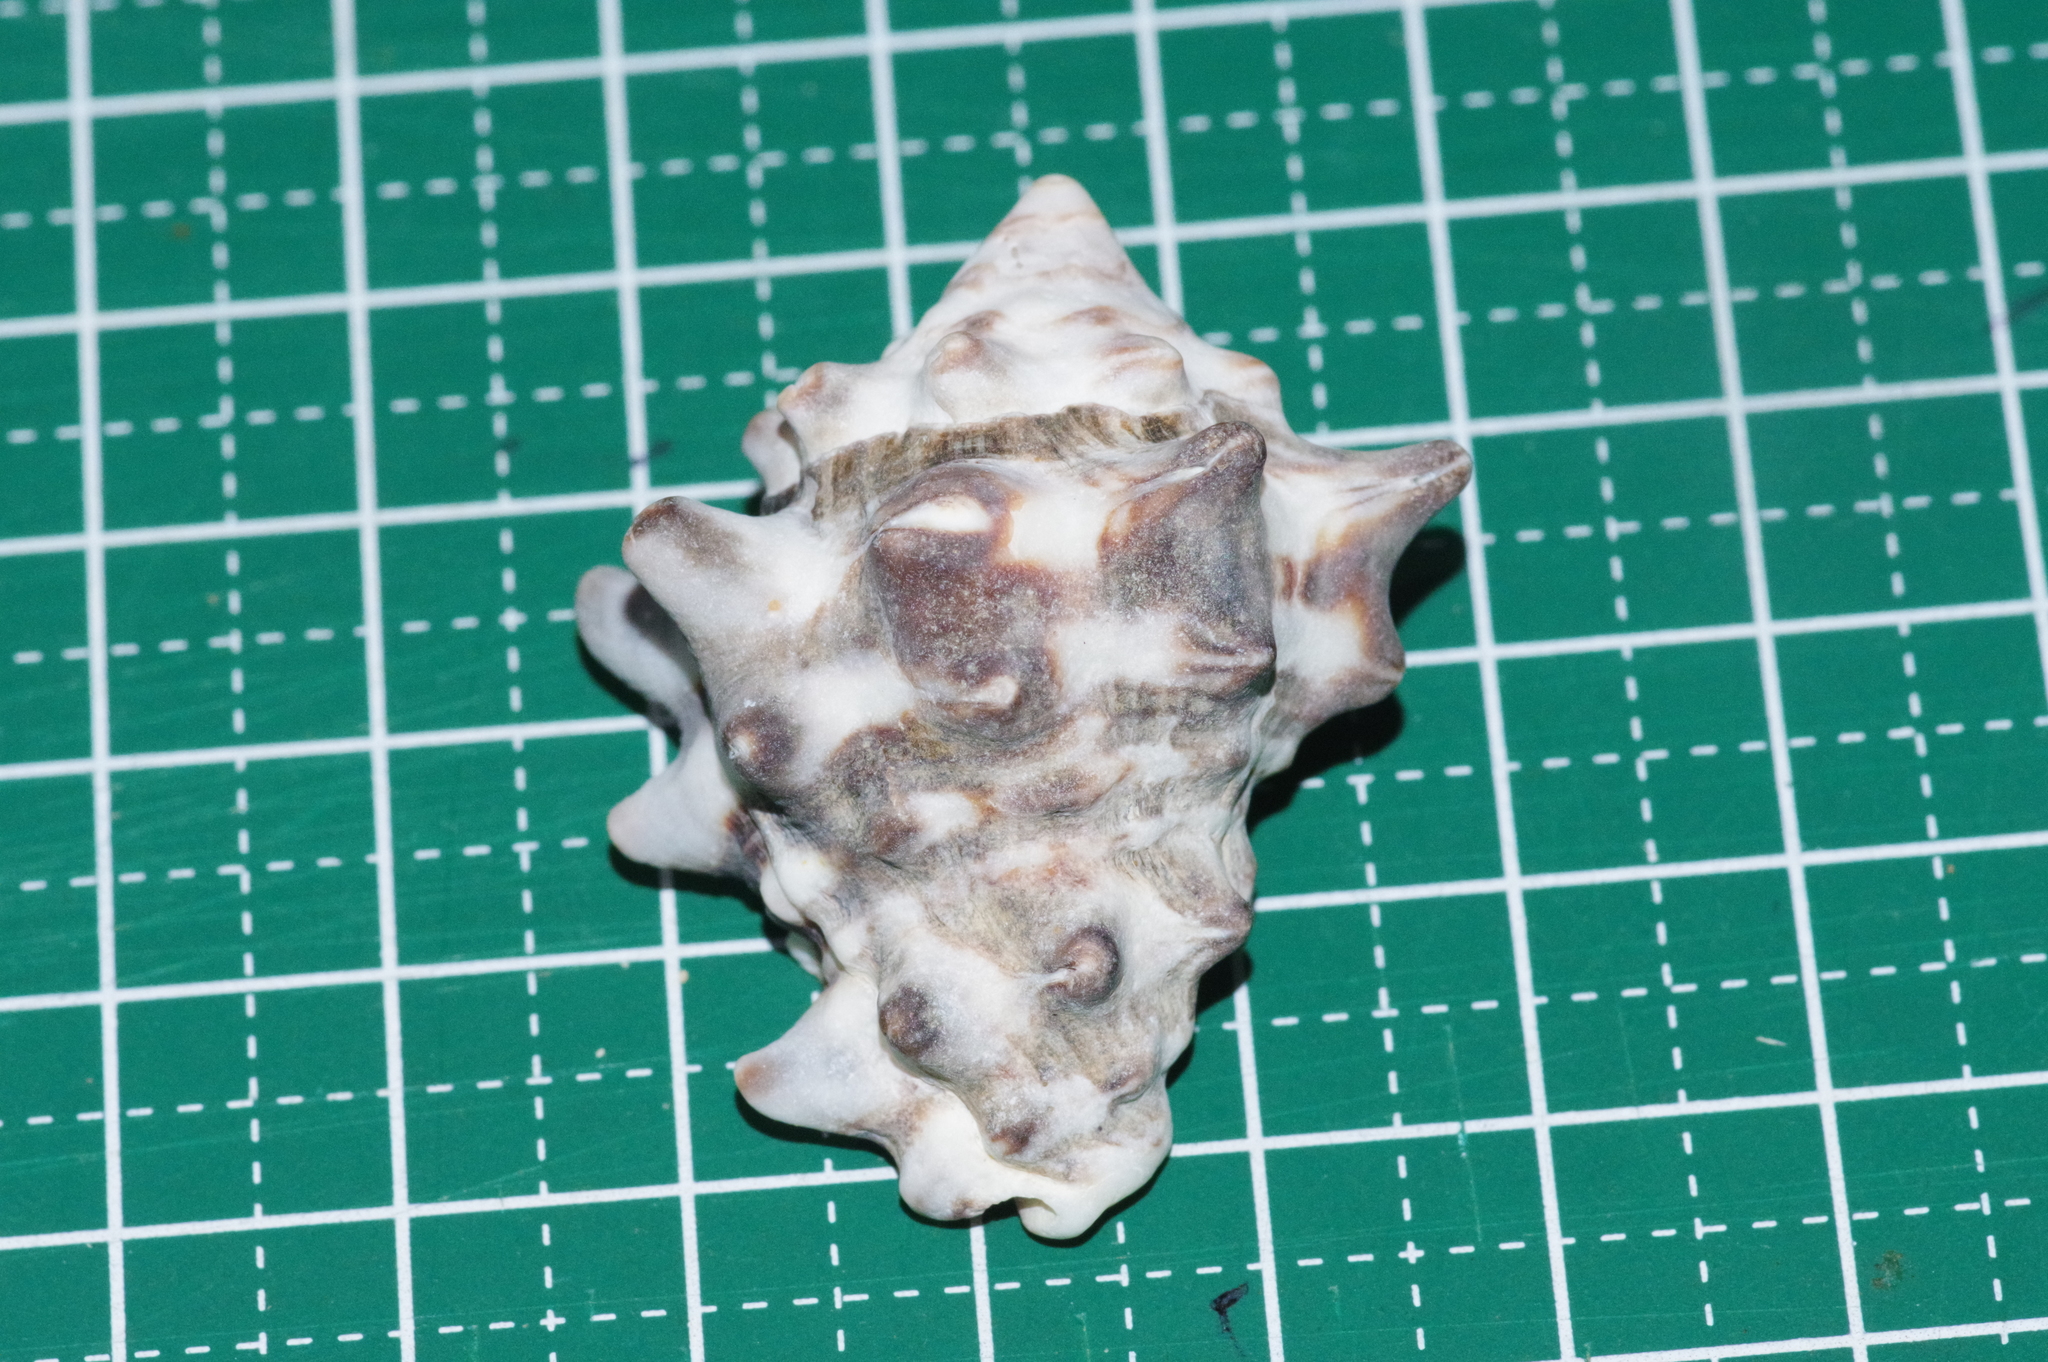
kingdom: Animalia
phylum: Mollusca
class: Gastropoda
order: Neogastropoda
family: Turbinellidae
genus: Vasum
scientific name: Vasum turbinellus
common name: Pacific top vase
